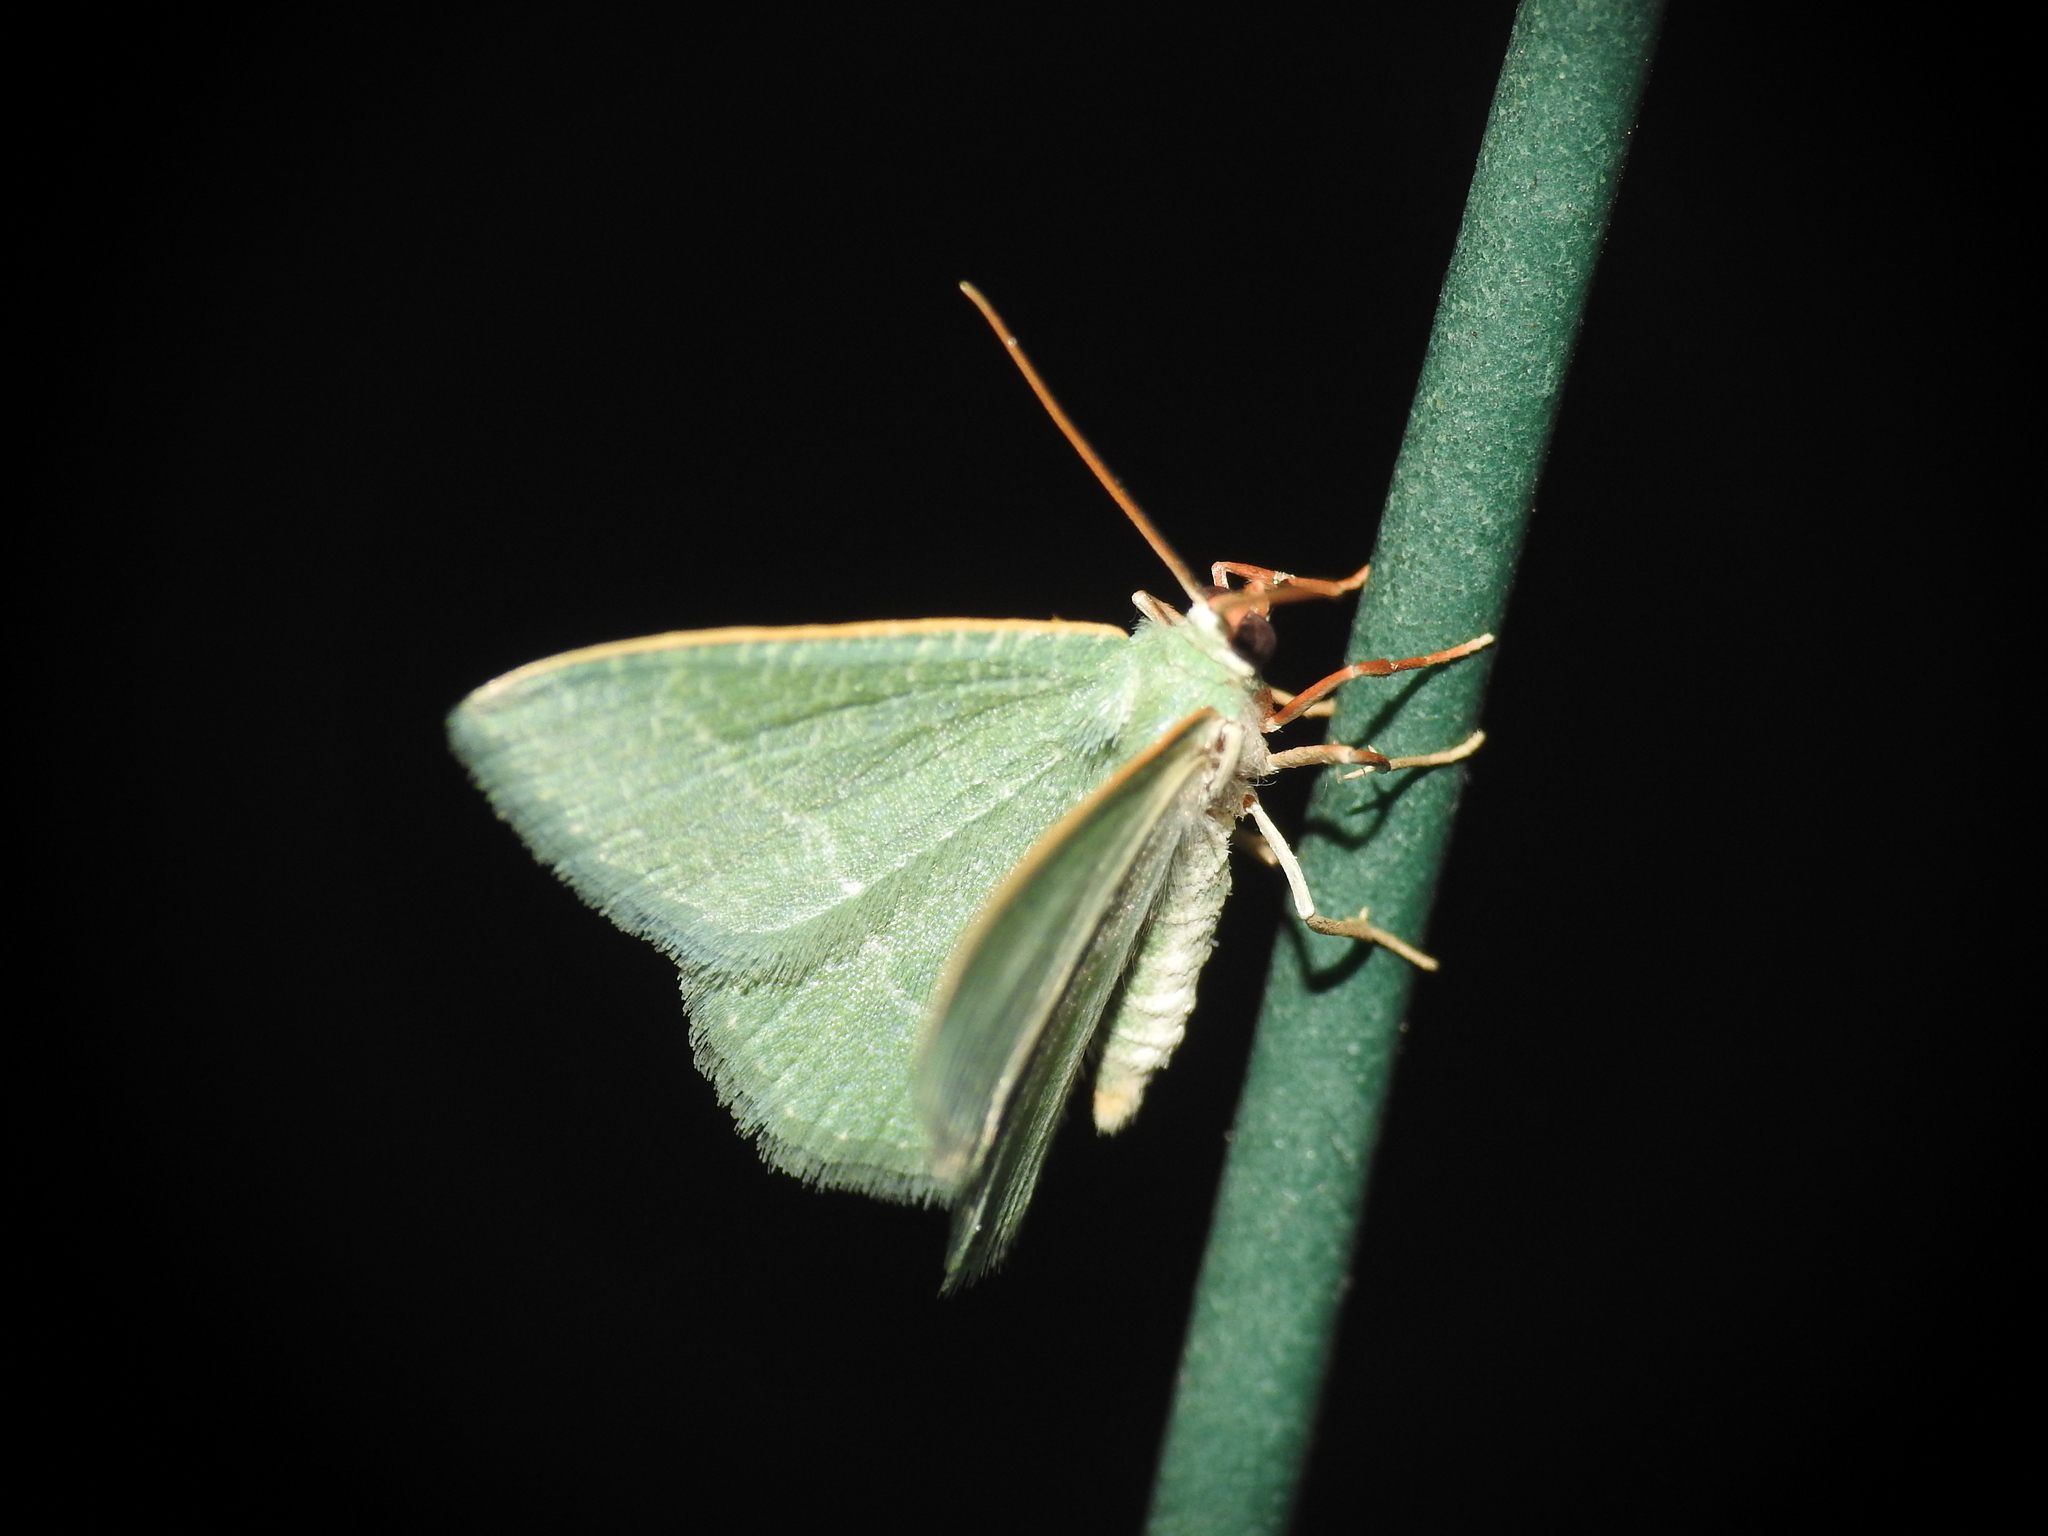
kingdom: Animalia
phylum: Arthropoda
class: Insecta
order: Lepidoptera
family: Geometridae
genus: Chlorissa
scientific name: Chlorissa etruscaria
